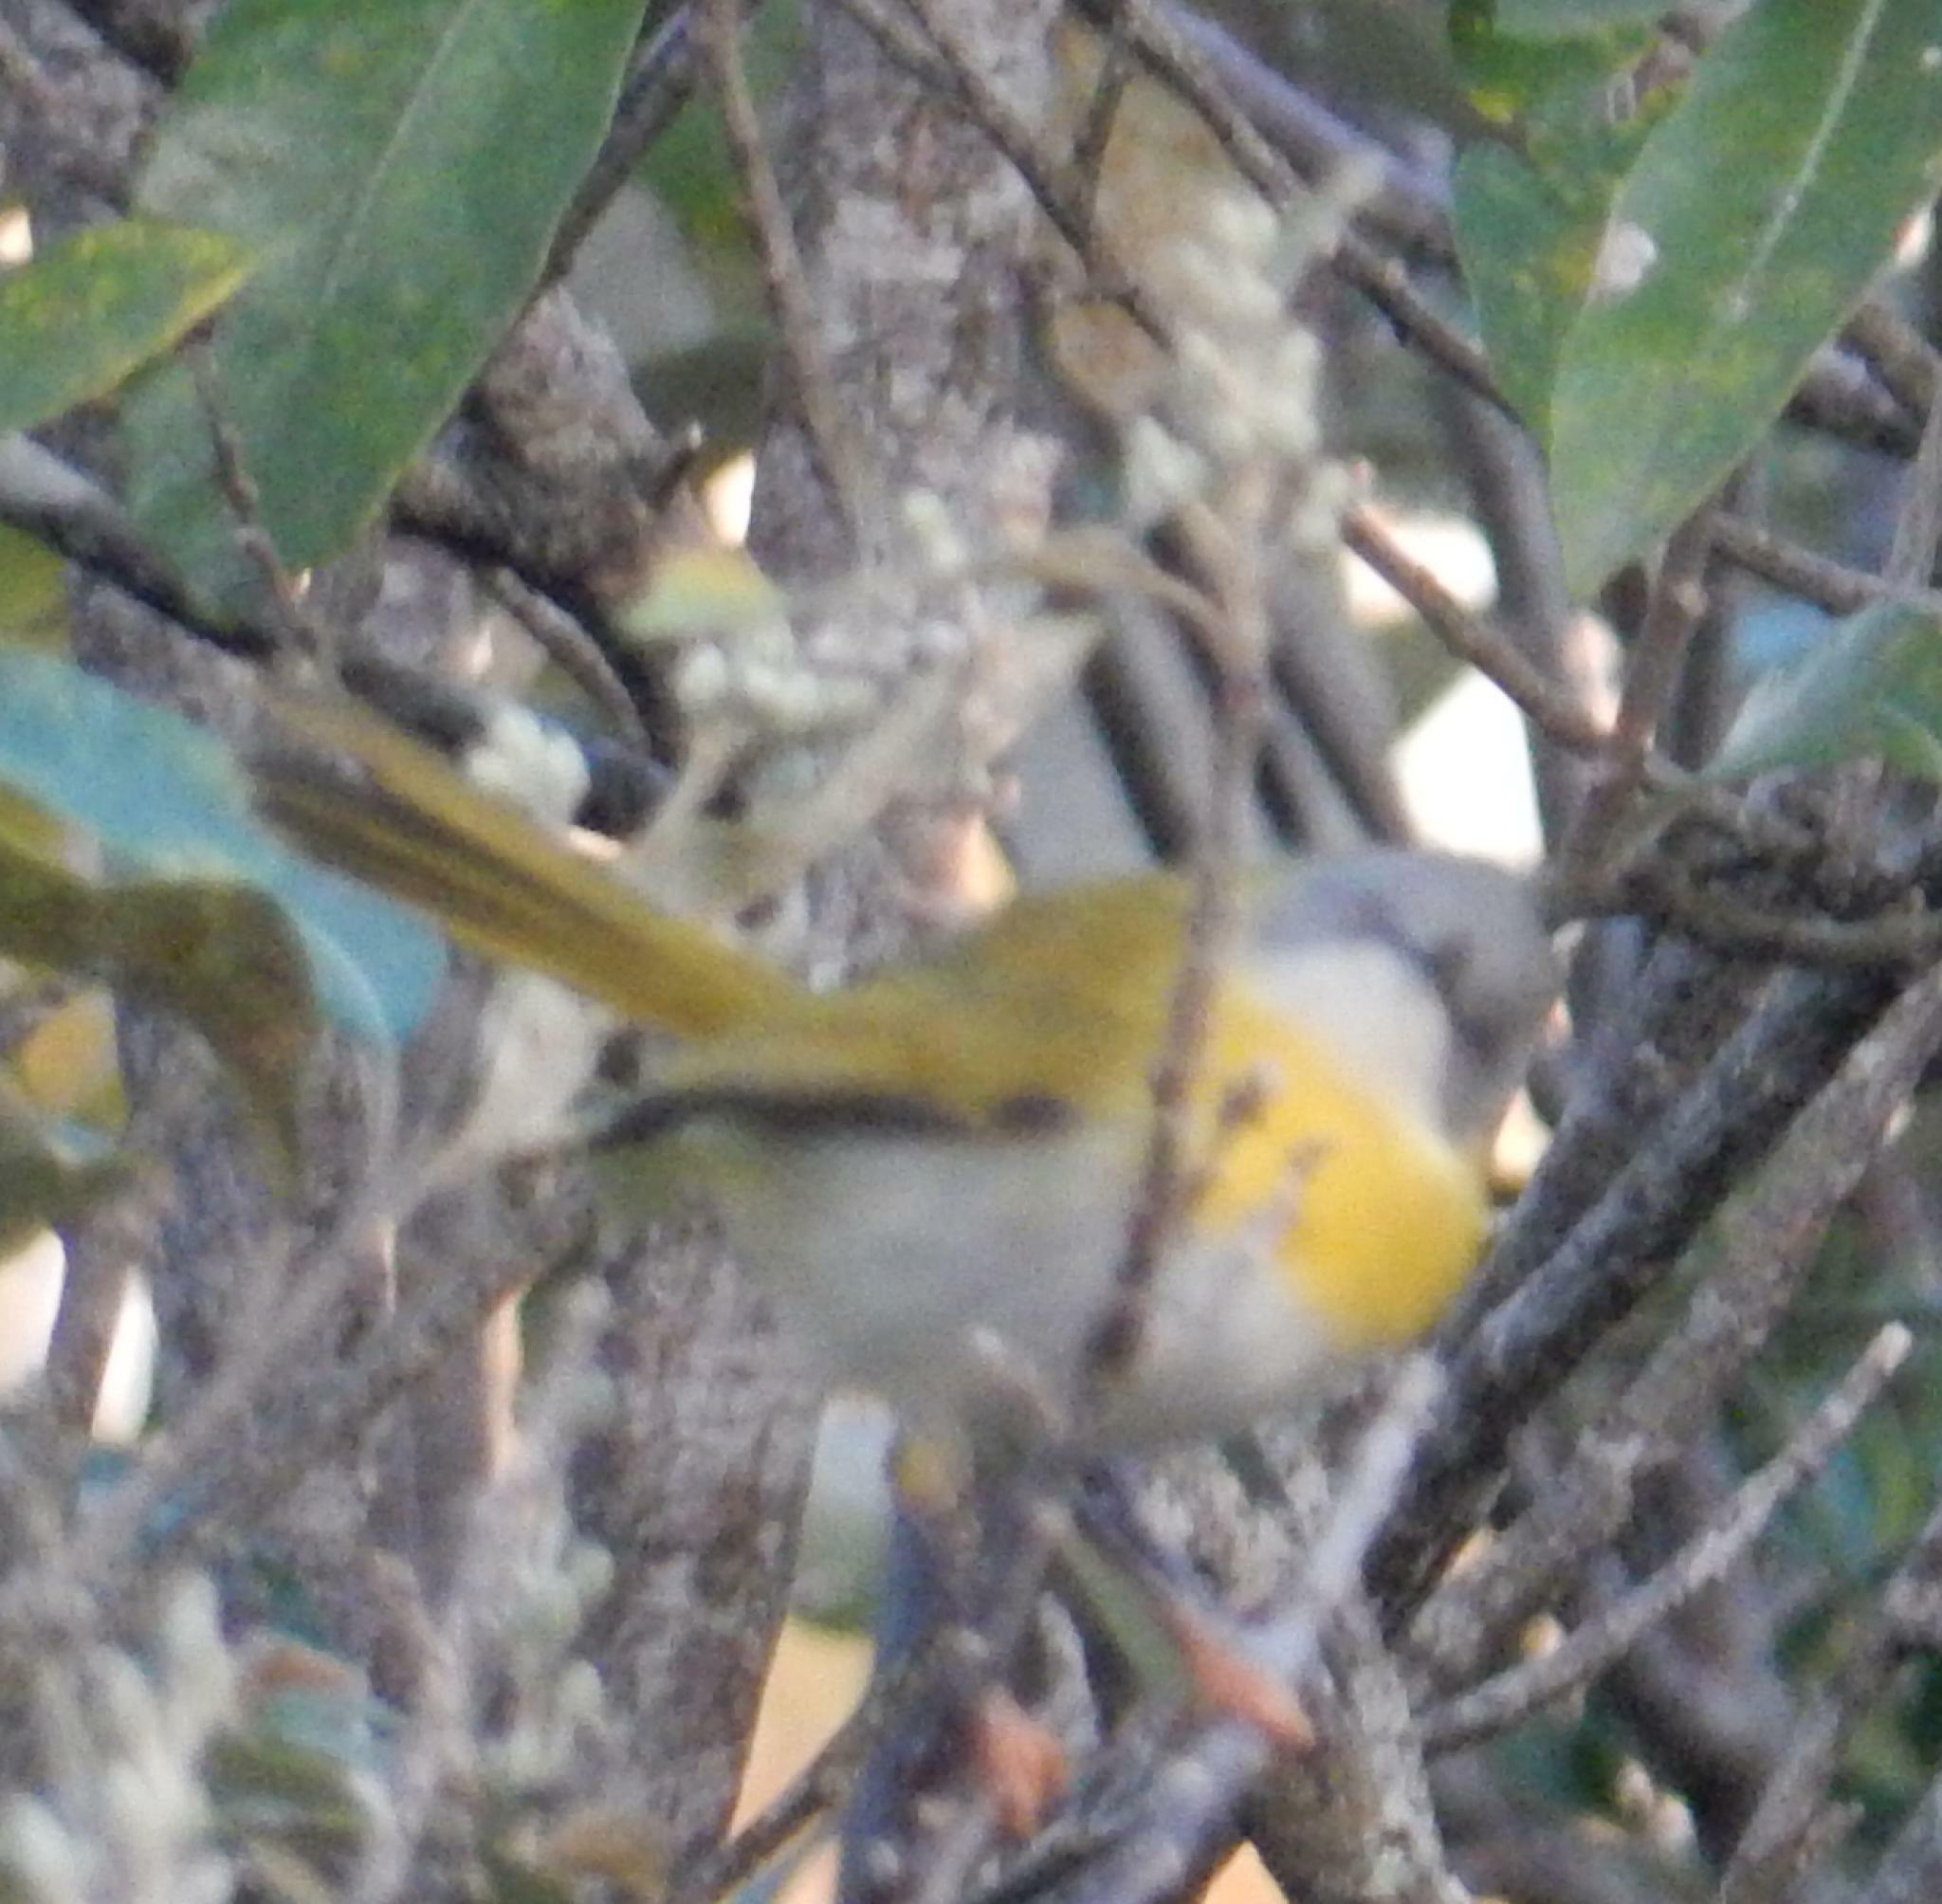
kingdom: Animalia
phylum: Chordata
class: Aves
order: Passeriformes
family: Cisticolidae
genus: Apalis
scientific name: Apalis flavida
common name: Yellow-breasted apalis
